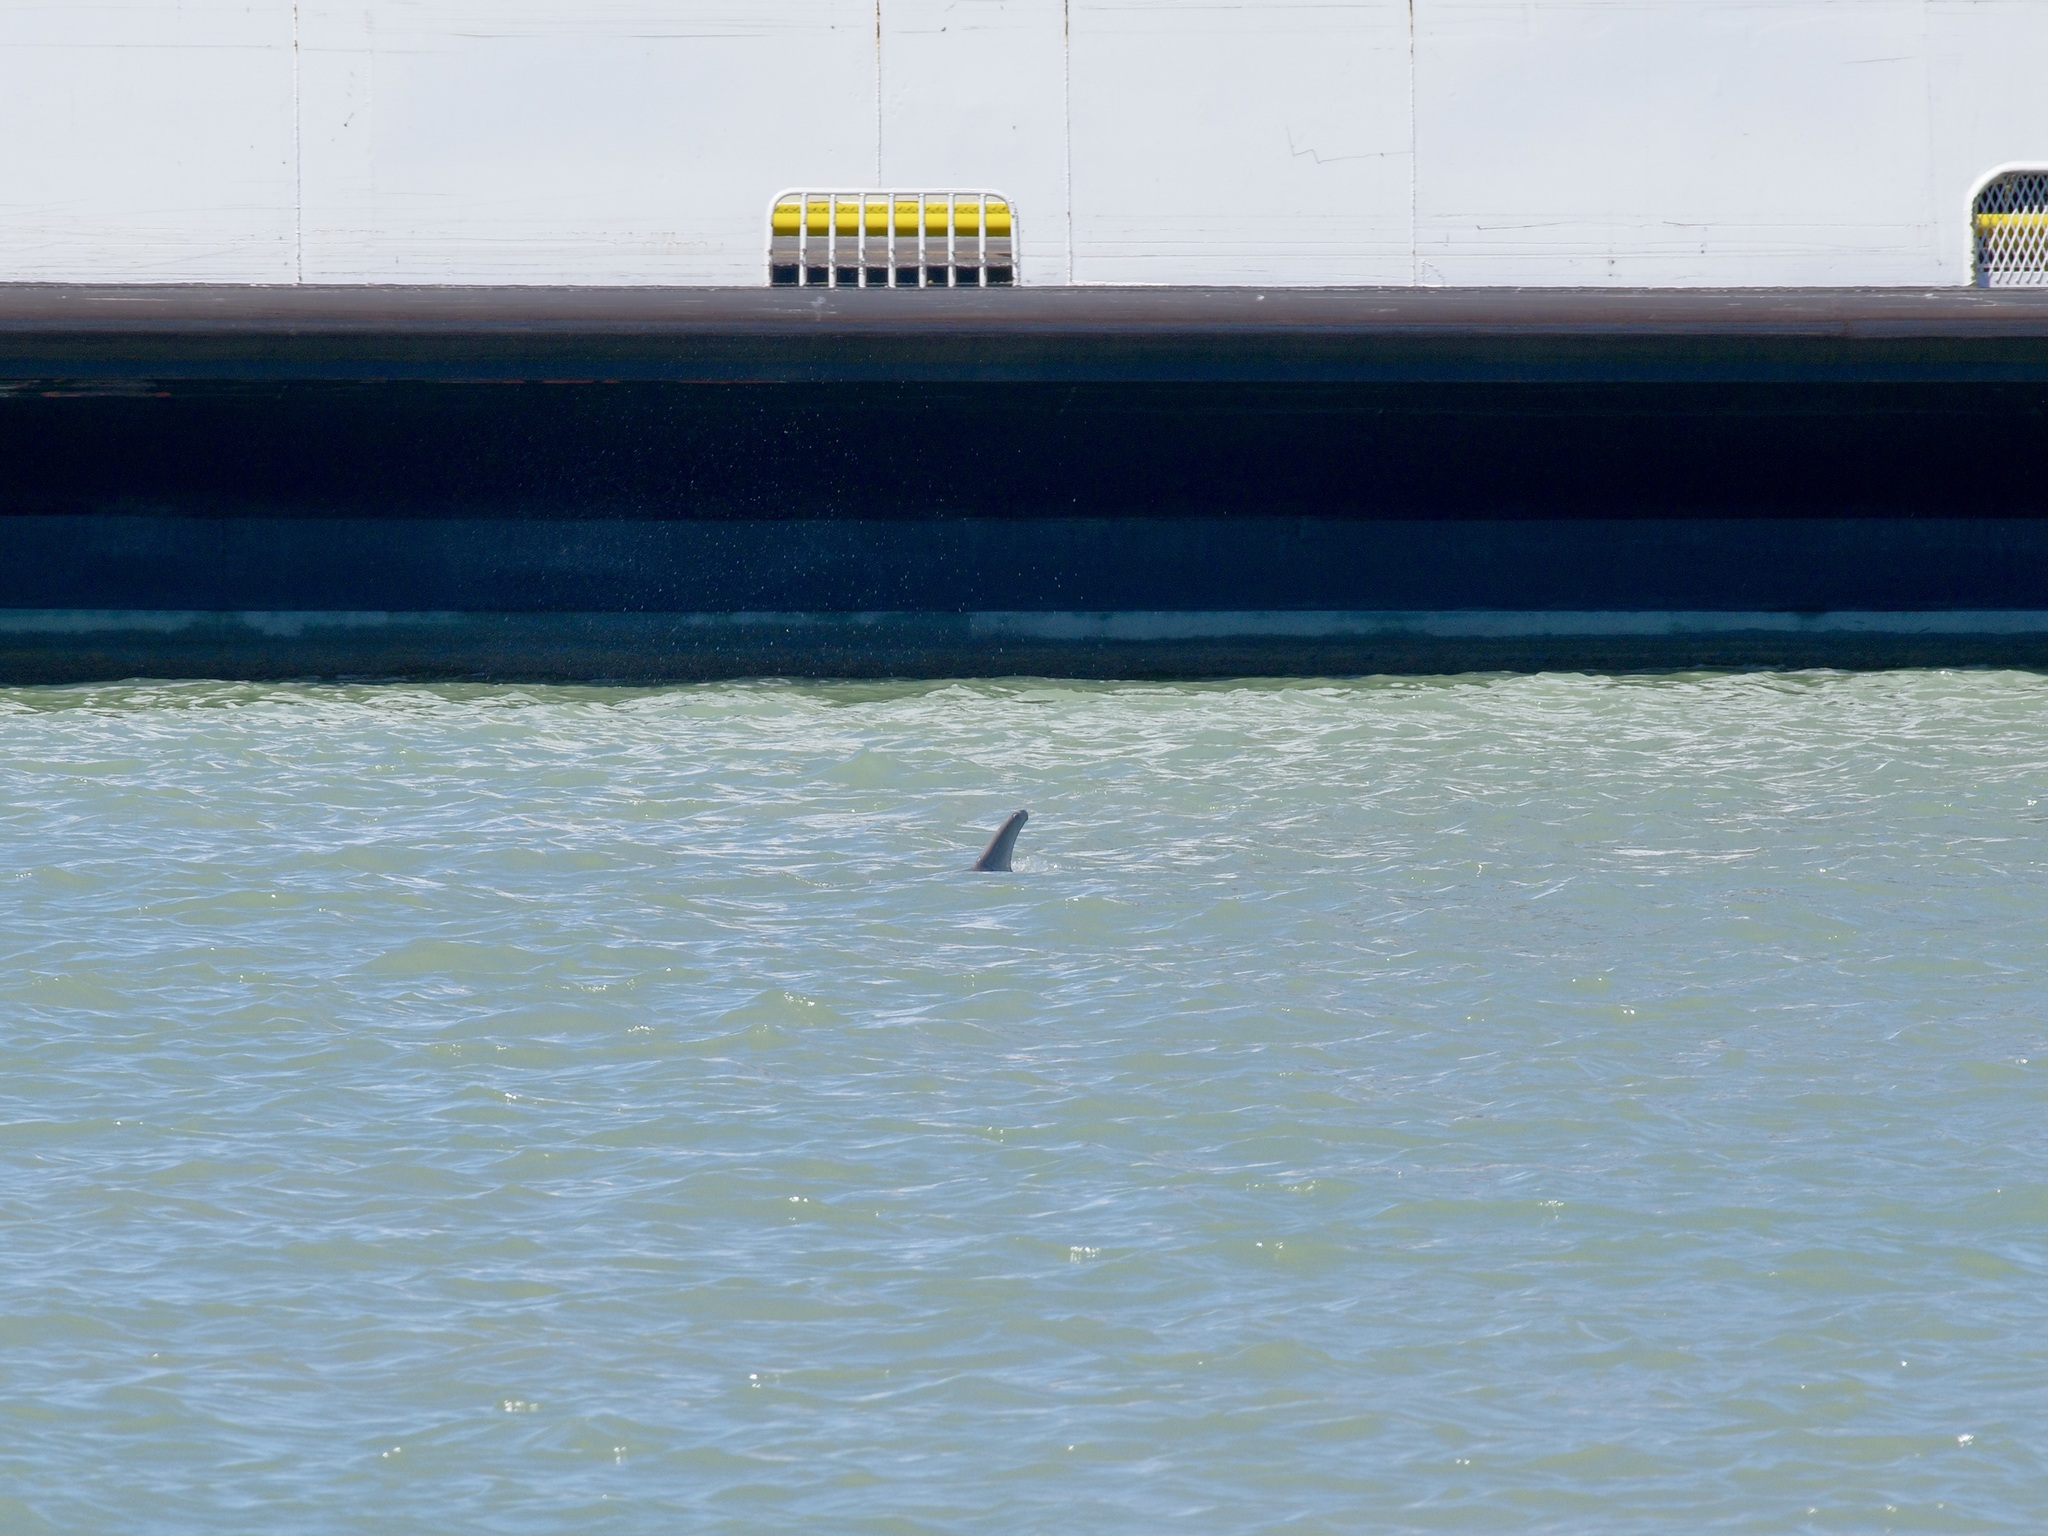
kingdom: Animalia
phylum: Chordata
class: Mammalia
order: Cetacea
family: Delphinidae
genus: Tursiops
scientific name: Tursiops truncatus
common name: Bottlenose dolphin
